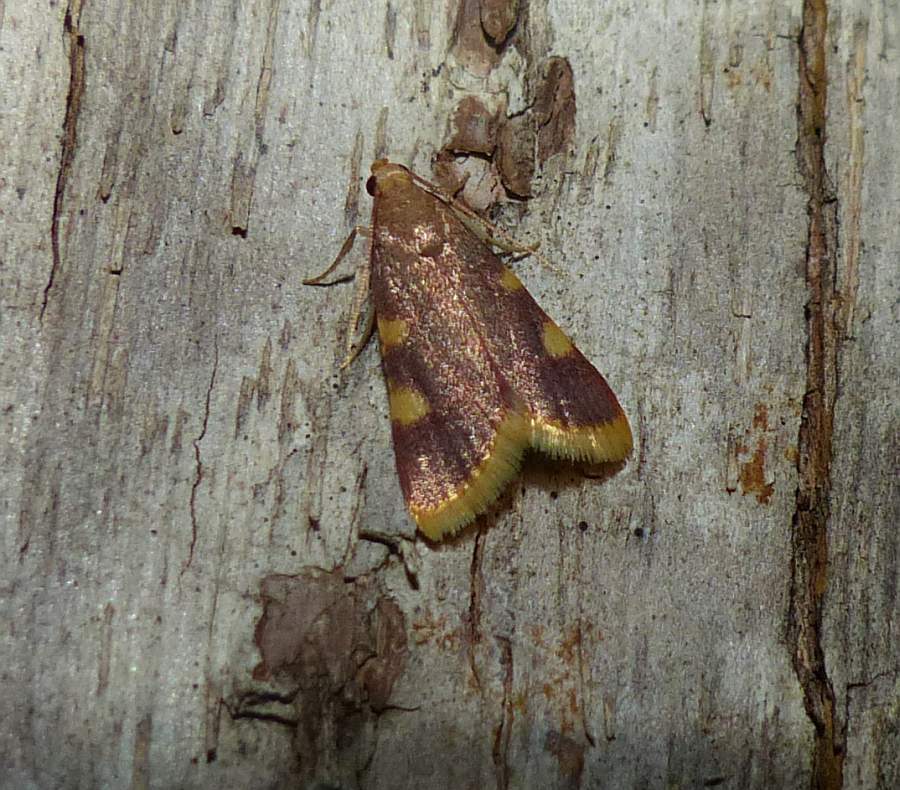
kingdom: Animalia
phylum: Arthropoda
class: Insecta
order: Lepidoptera
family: Pyralidae
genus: Hypsopygia
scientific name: Hypsopygia costalis
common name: Gold triangle
